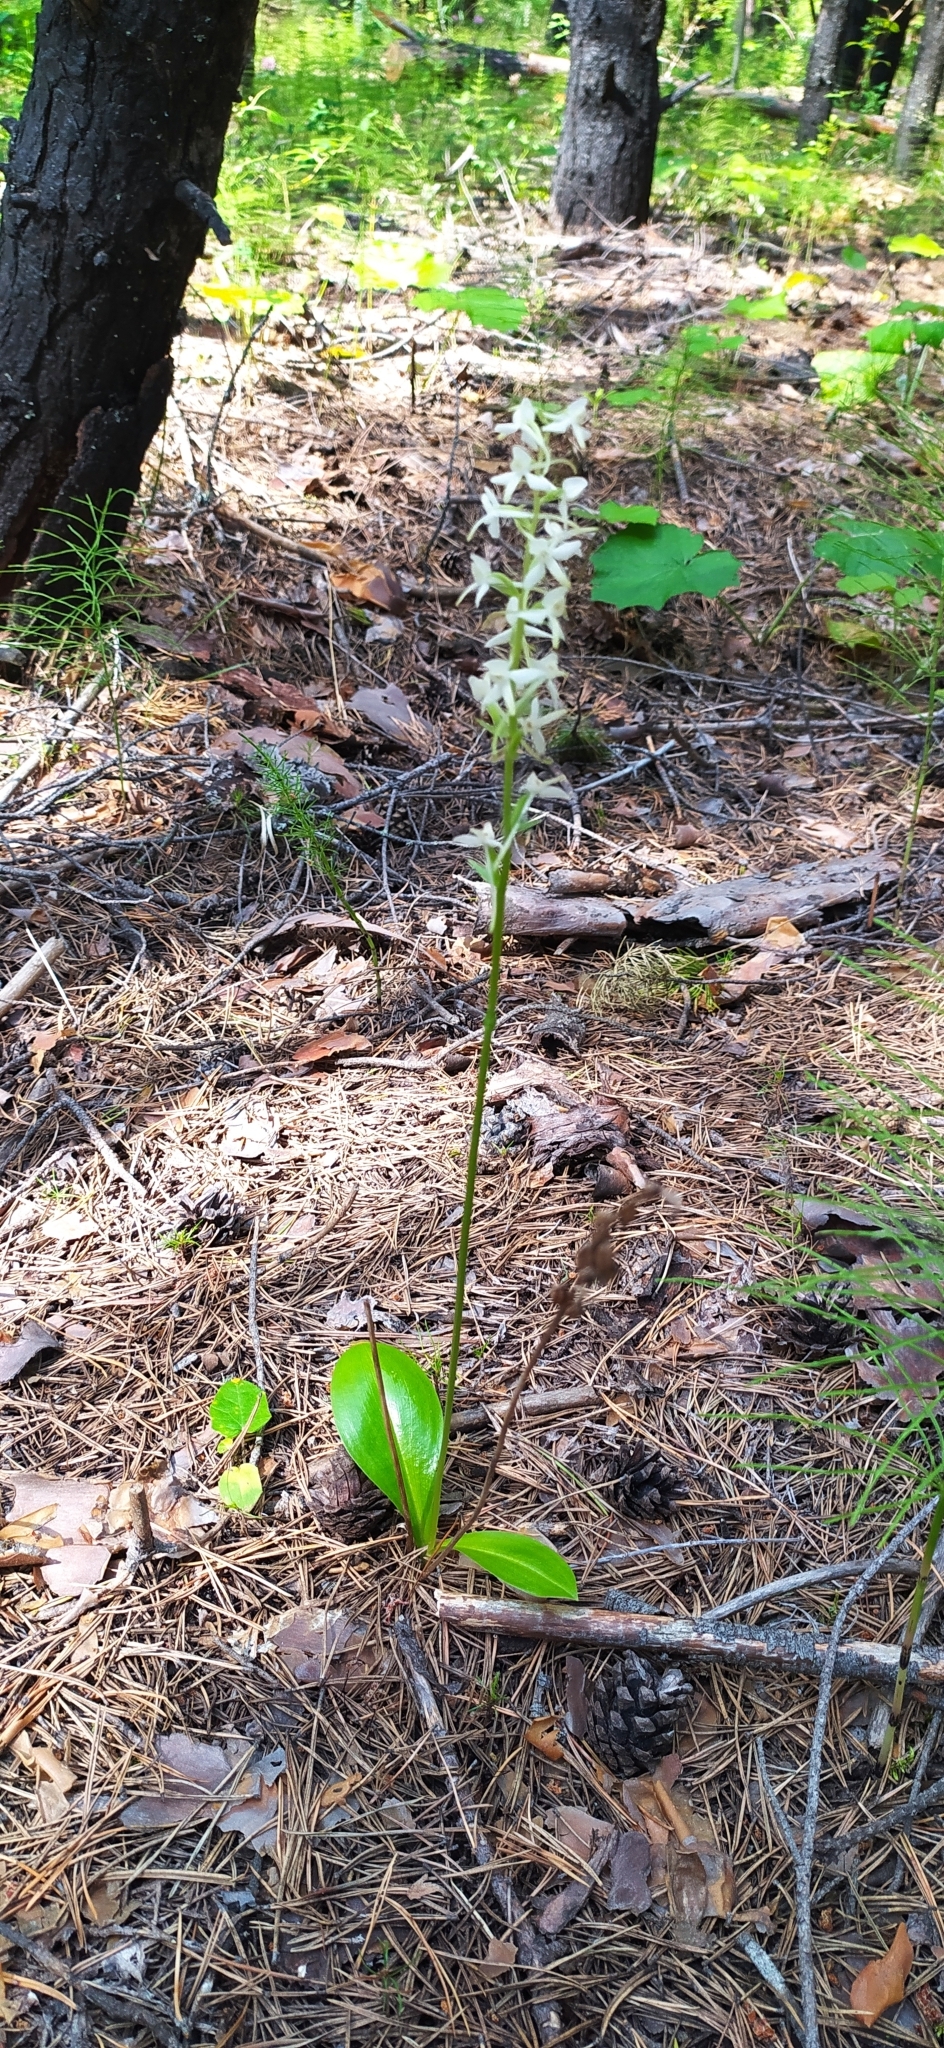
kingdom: Plantae
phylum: Tracheophyta
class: Liliopsida
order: Asparagales
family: Orchidaceae
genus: Platanthera
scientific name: Platanthera bifolia
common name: Lesser butterfly-orchid
